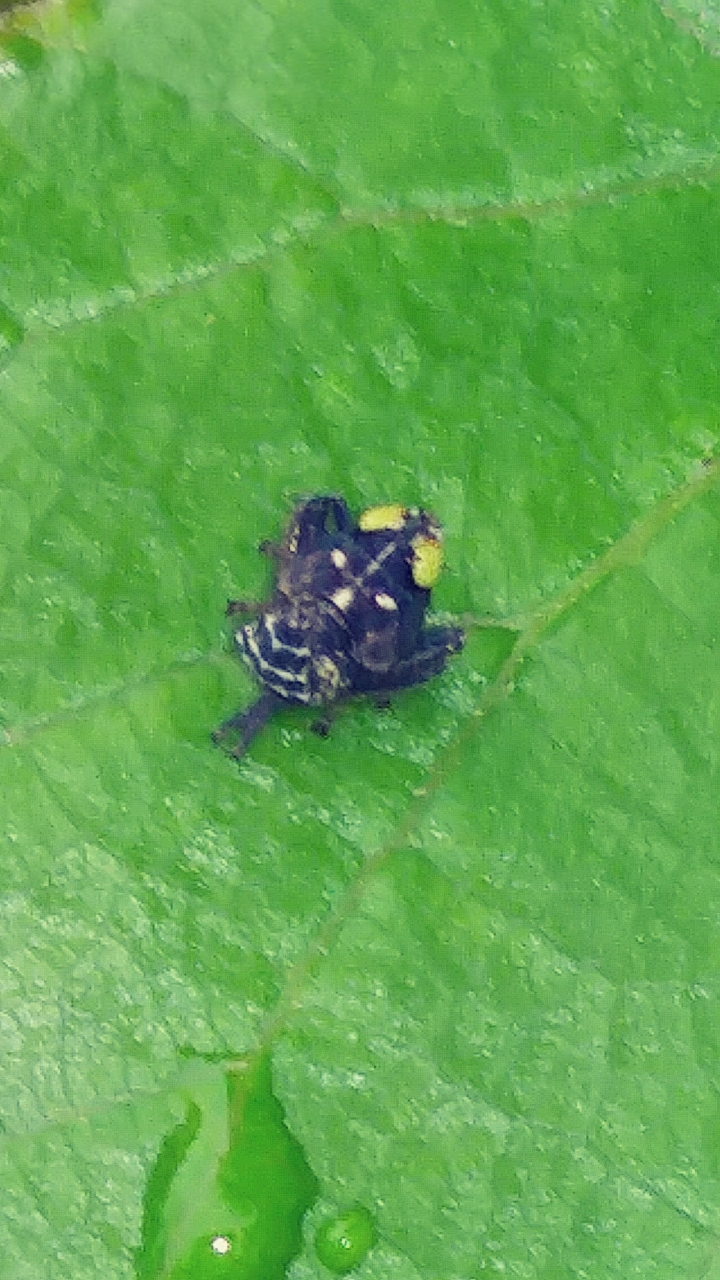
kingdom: Animalia
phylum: Arthropoda
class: Insecta
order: Hemiptera
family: Cicadellidae
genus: Jikradia
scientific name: Jikradia olitoria
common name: Coppery leafhopper
